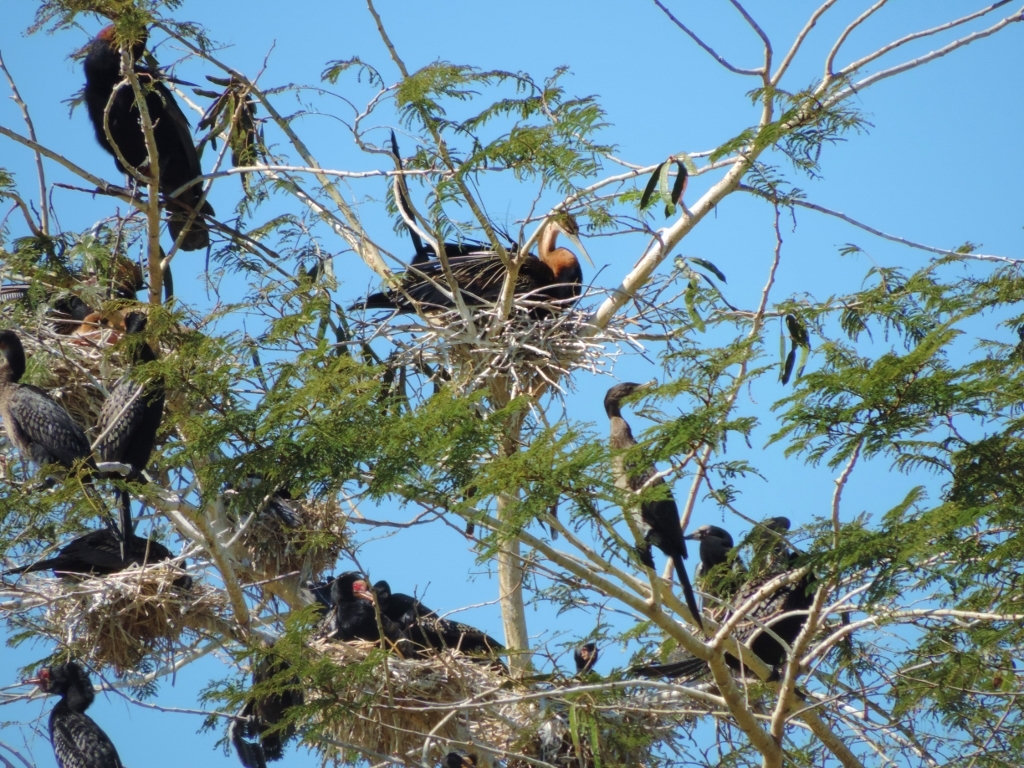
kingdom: Animalia
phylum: Chordata
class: Aves
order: Suliformes
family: Anhingidae
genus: Anhinga
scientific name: Anhinga rufa
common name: African darter
